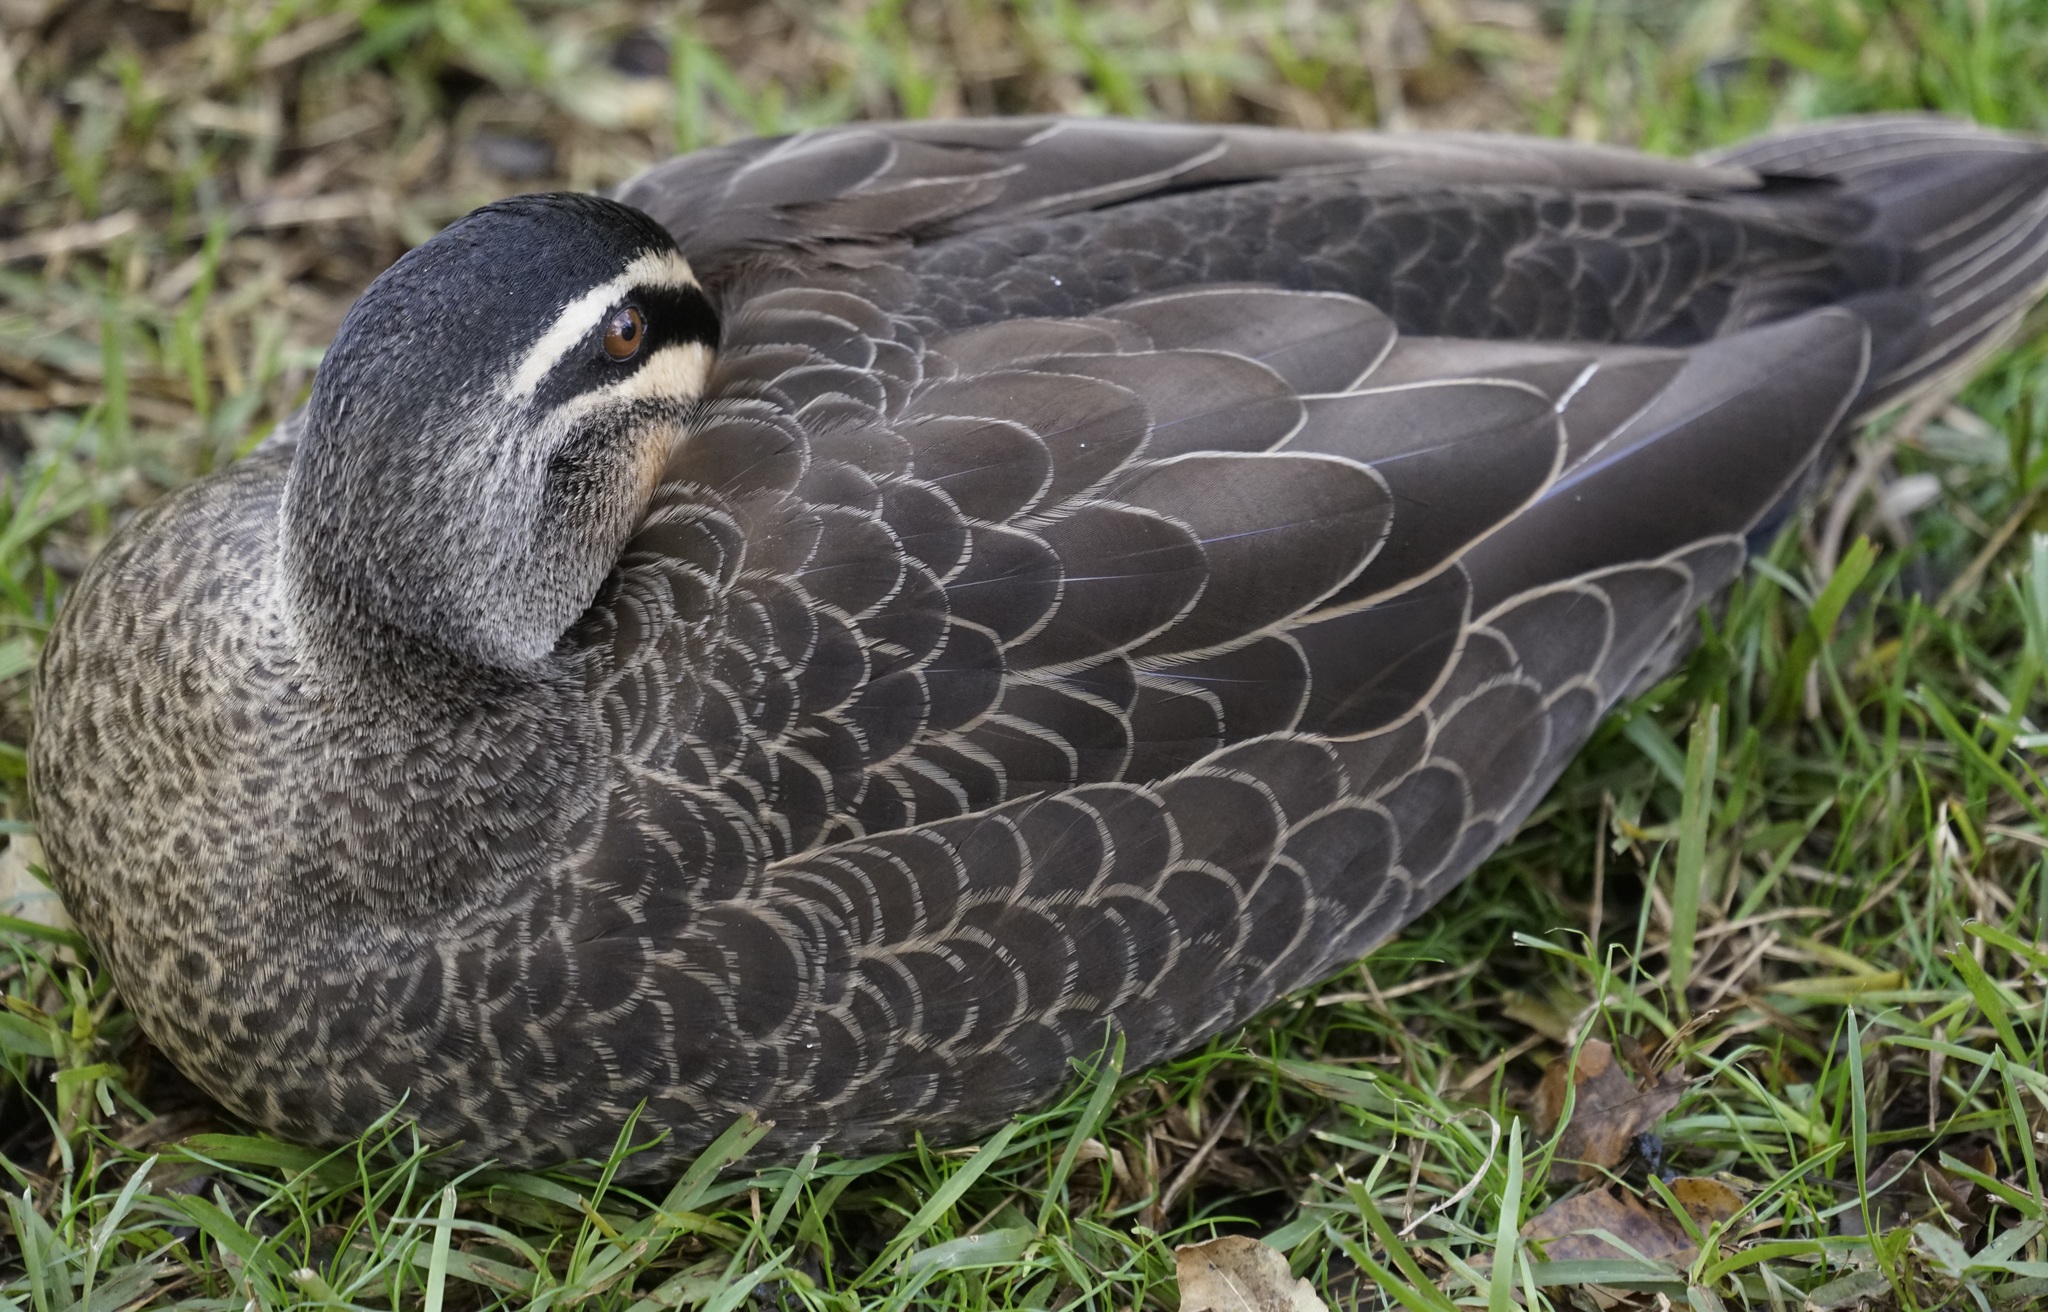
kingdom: Animalia
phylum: Chordata
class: Aves
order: Anseriformes
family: Anatidae
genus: Anas
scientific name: Anas superciliosa
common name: Pacific black duck
